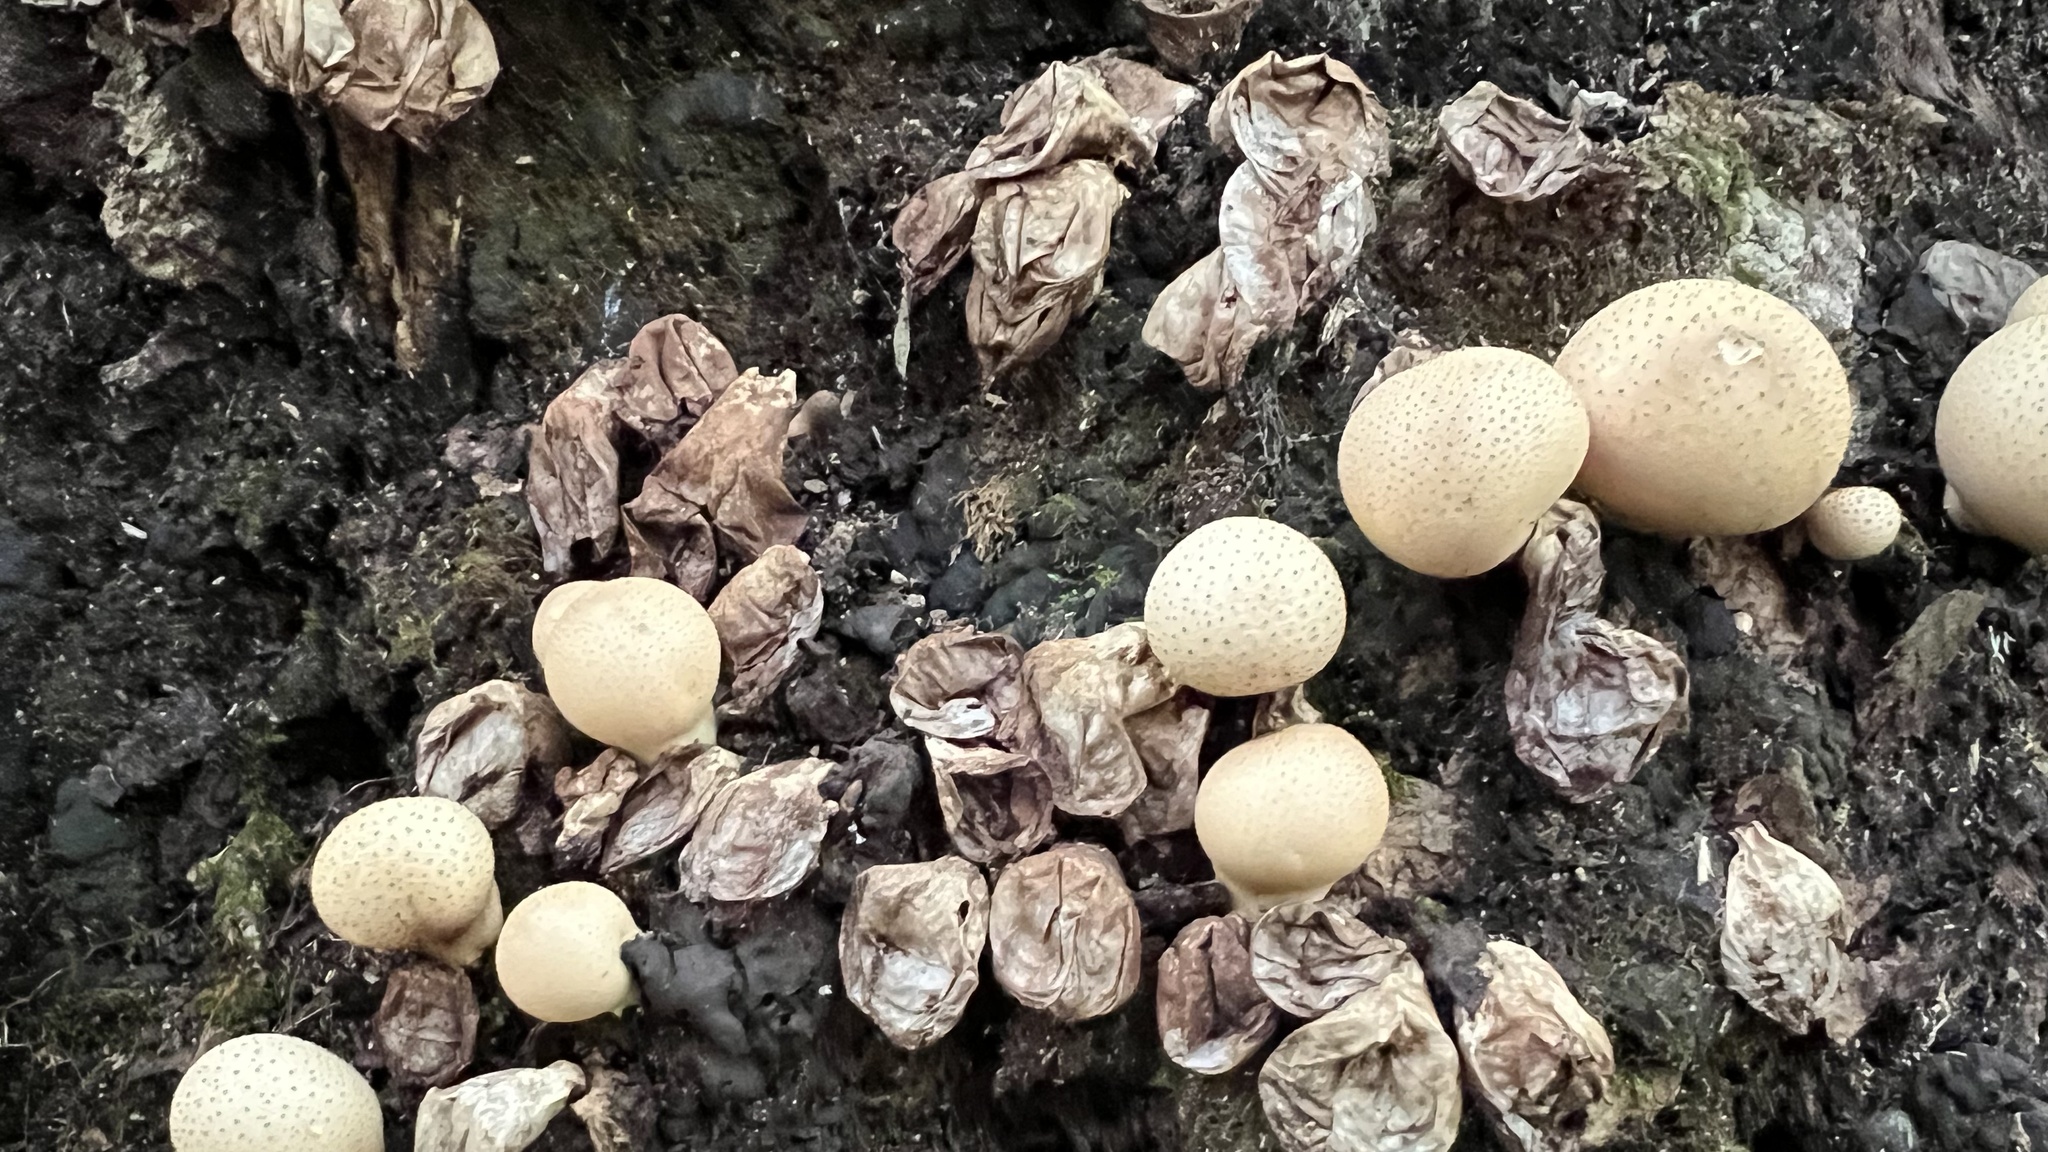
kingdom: Fungi
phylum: Basidiomycota
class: Agaricomycetes
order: Agaricales
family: Lycoperdaceae
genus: Apioperdon
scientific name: Apioperdon pyriforme
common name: Pear-shaped puffball
